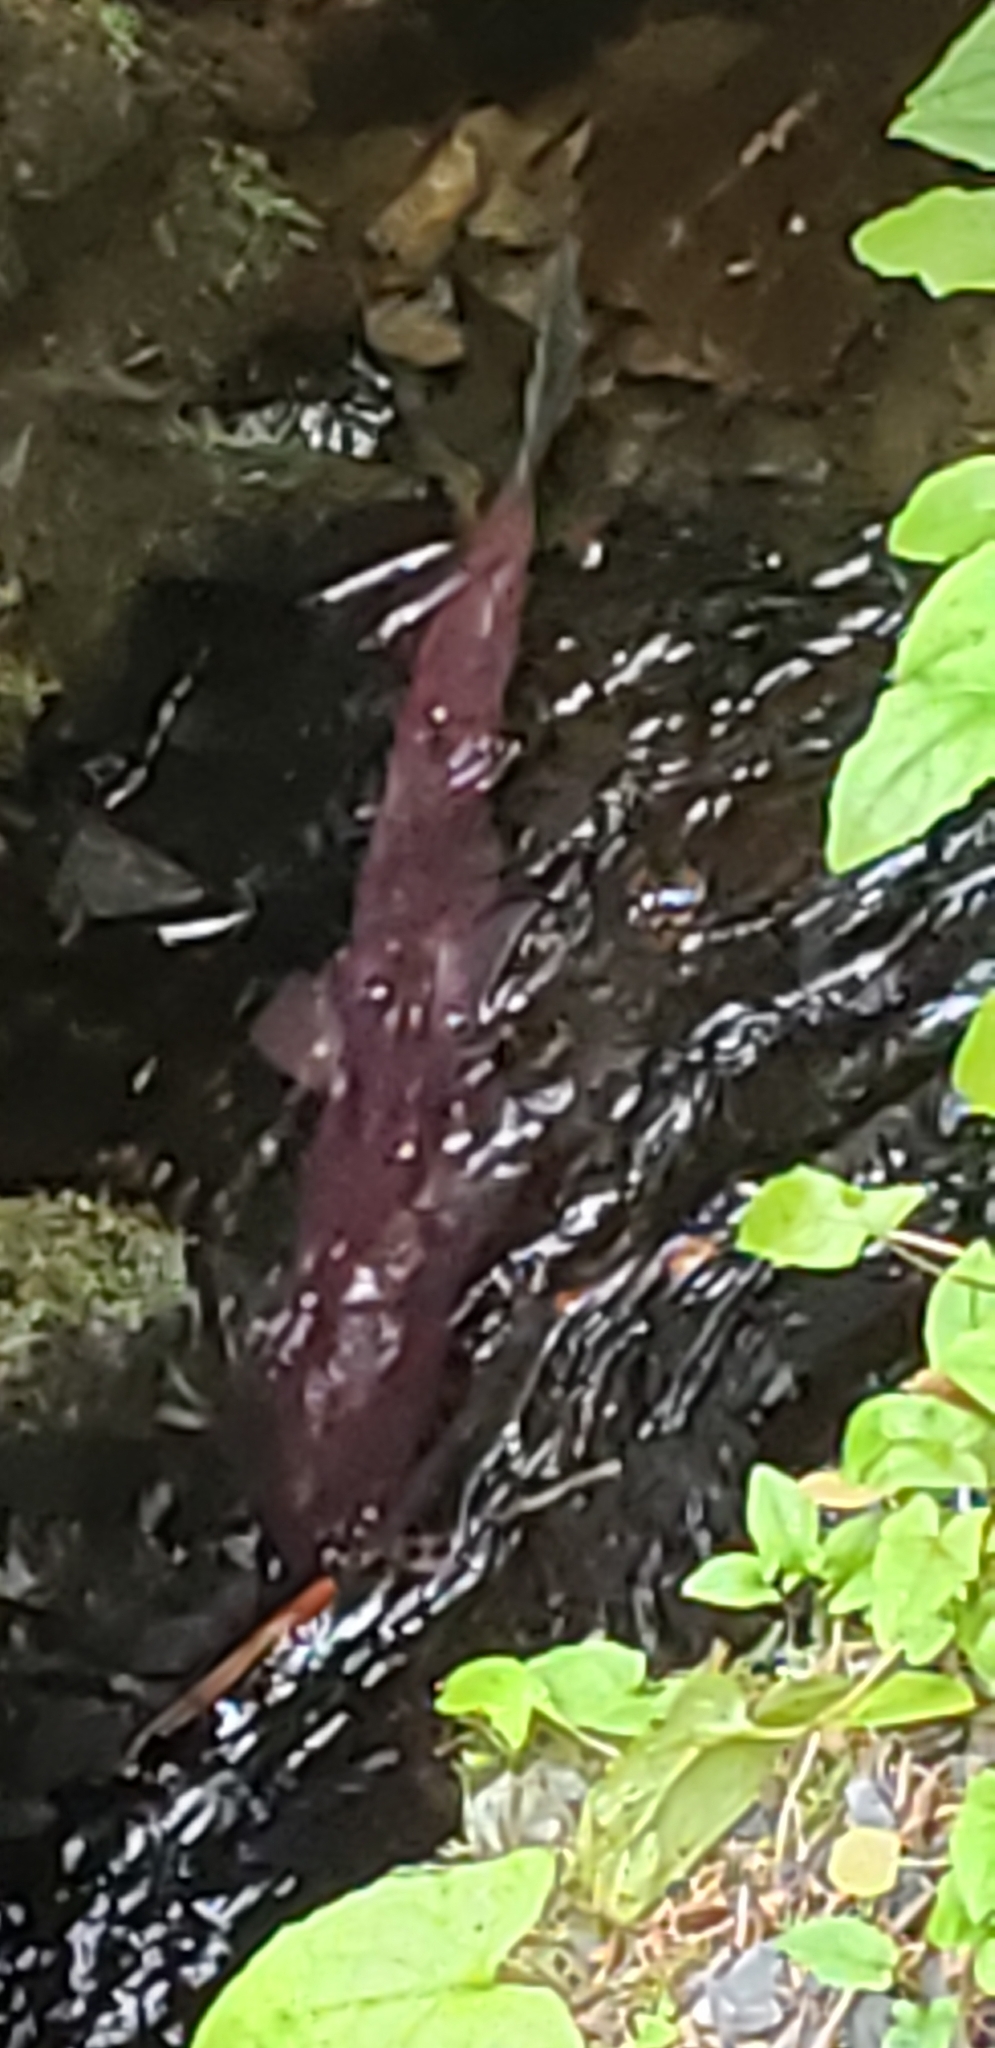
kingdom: Animalia
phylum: Chordata
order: Salmoniformes
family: Salmonidae
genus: Oncorhynchus
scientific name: Oncorhynchus nerka
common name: Sockeye salmon
